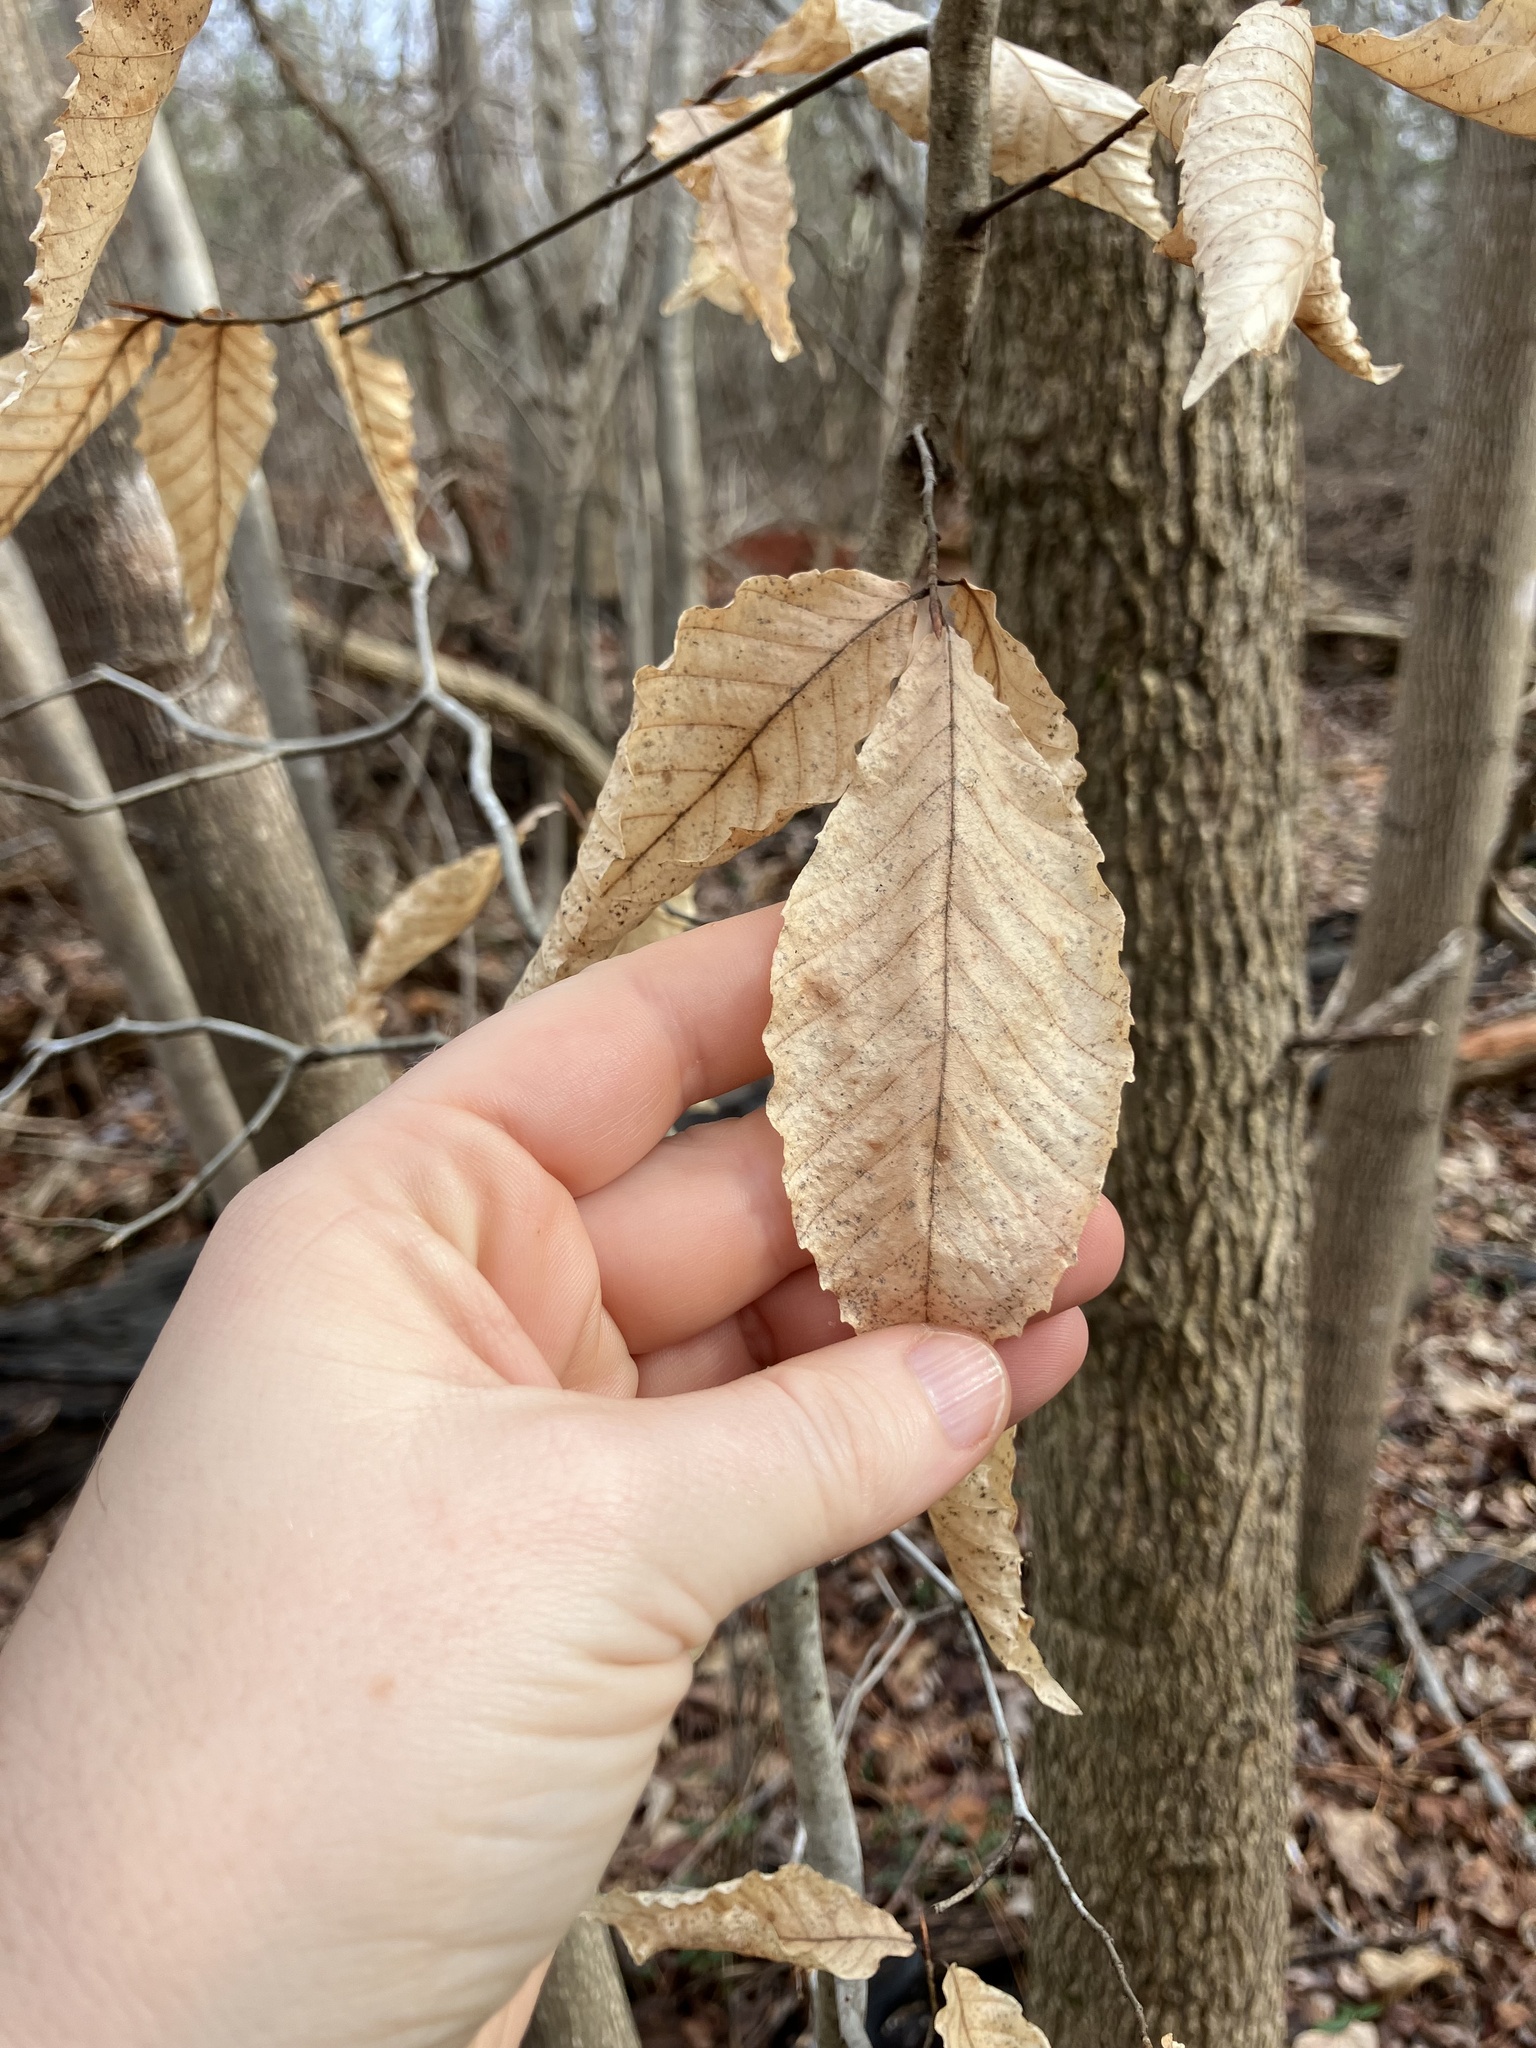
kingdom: Plantae
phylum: Tracheophyta
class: Magnoliopsida
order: Fagales
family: Fagaceae
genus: Fagus
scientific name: Fagus grandifolia
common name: American beech
